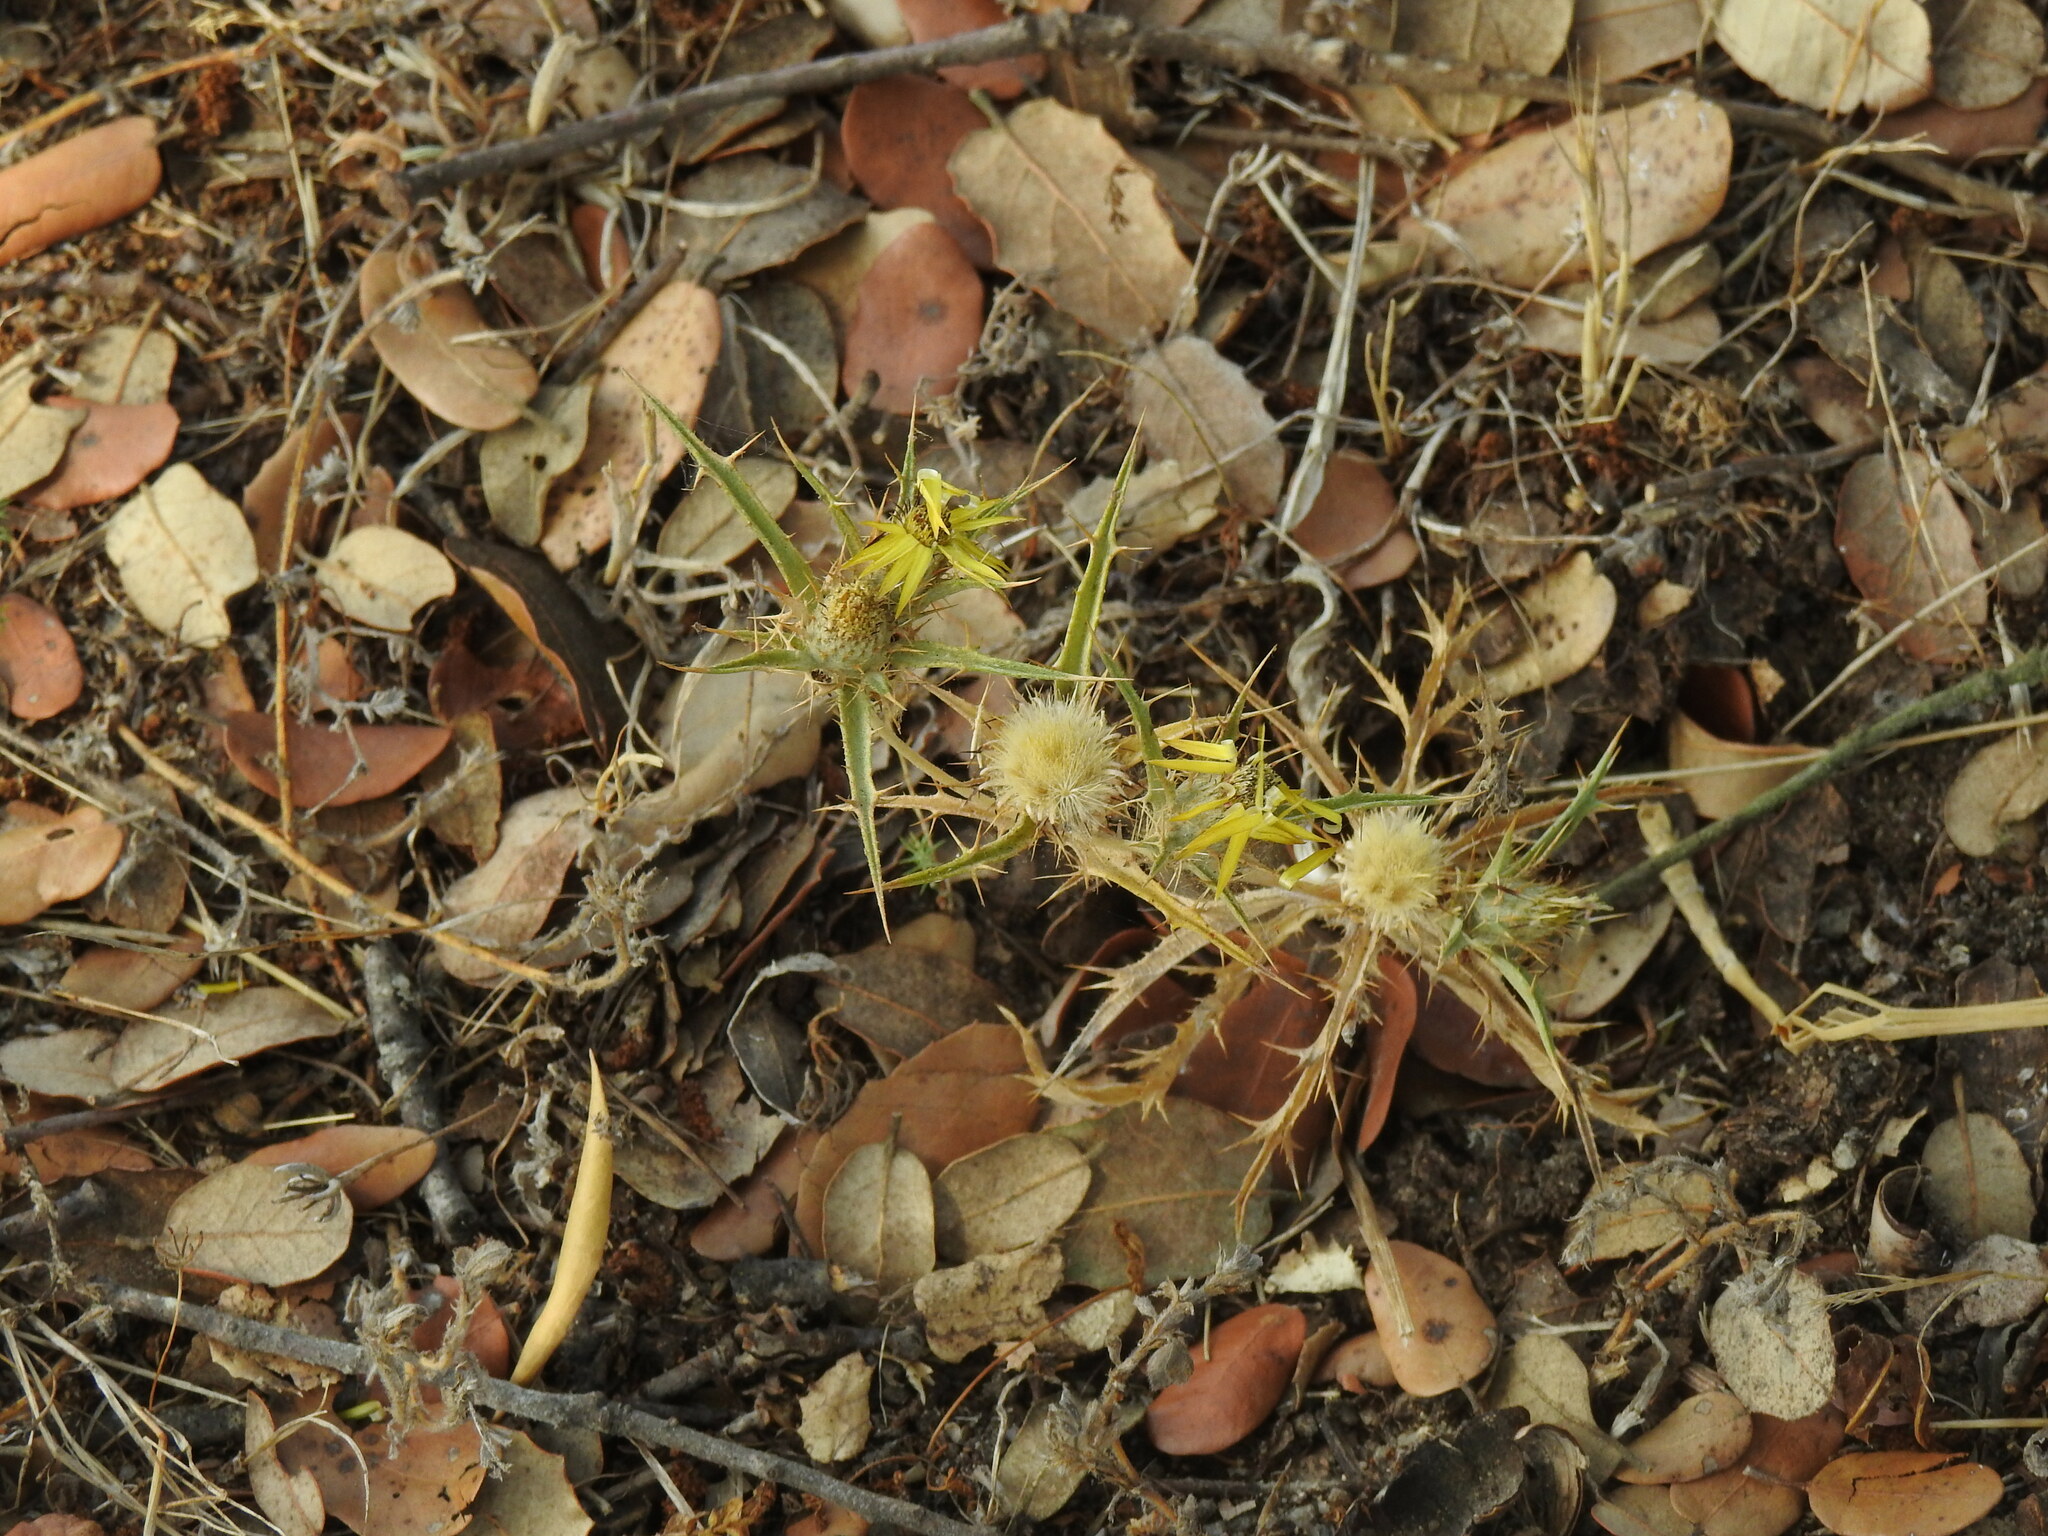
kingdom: Plantae
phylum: Tracheophyta
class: Magnoliopsida
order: Asterales
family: Asteraceae
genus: Carlina
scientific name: Carlina racemosa
